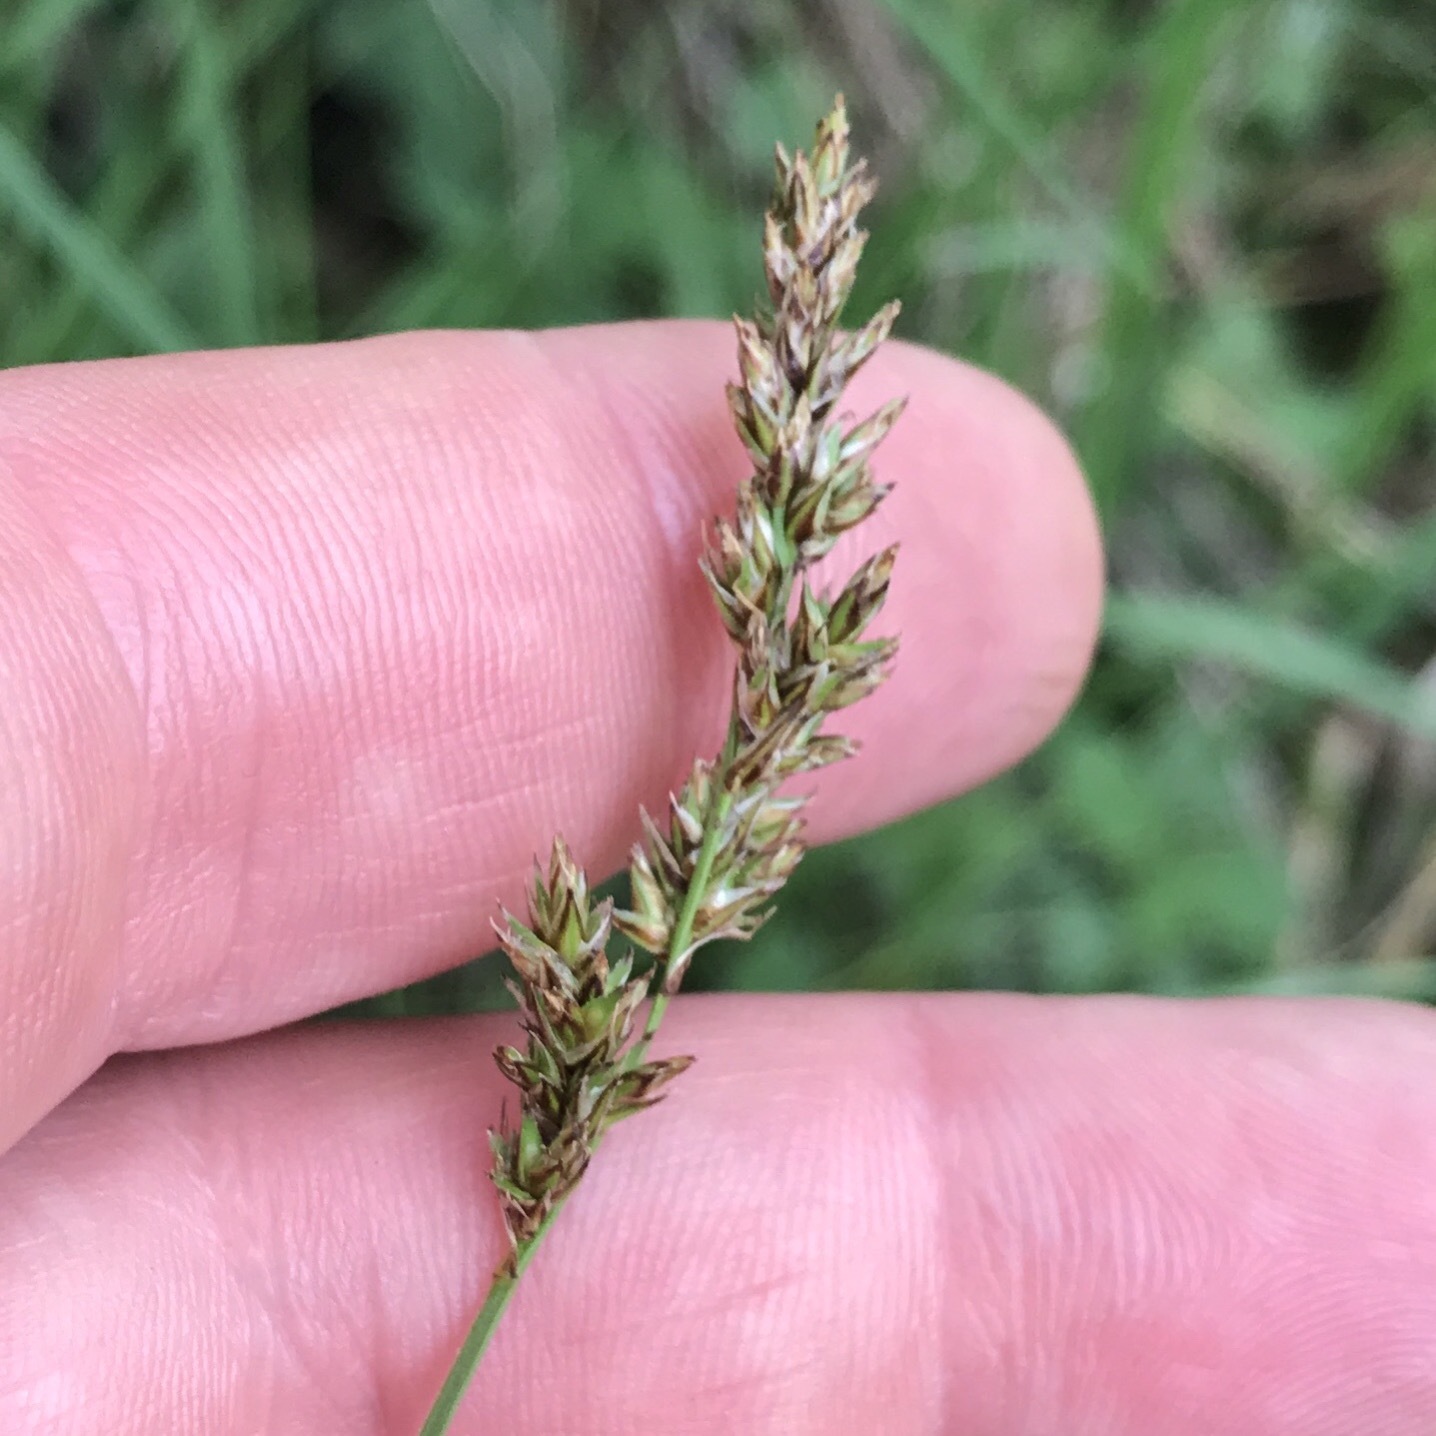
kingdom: Plantae
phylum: Tracheophyta
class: Liliopsida
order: Poales
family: Cyperaceae
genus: Carex
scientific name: Carex prairea
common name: Prairie sedge
